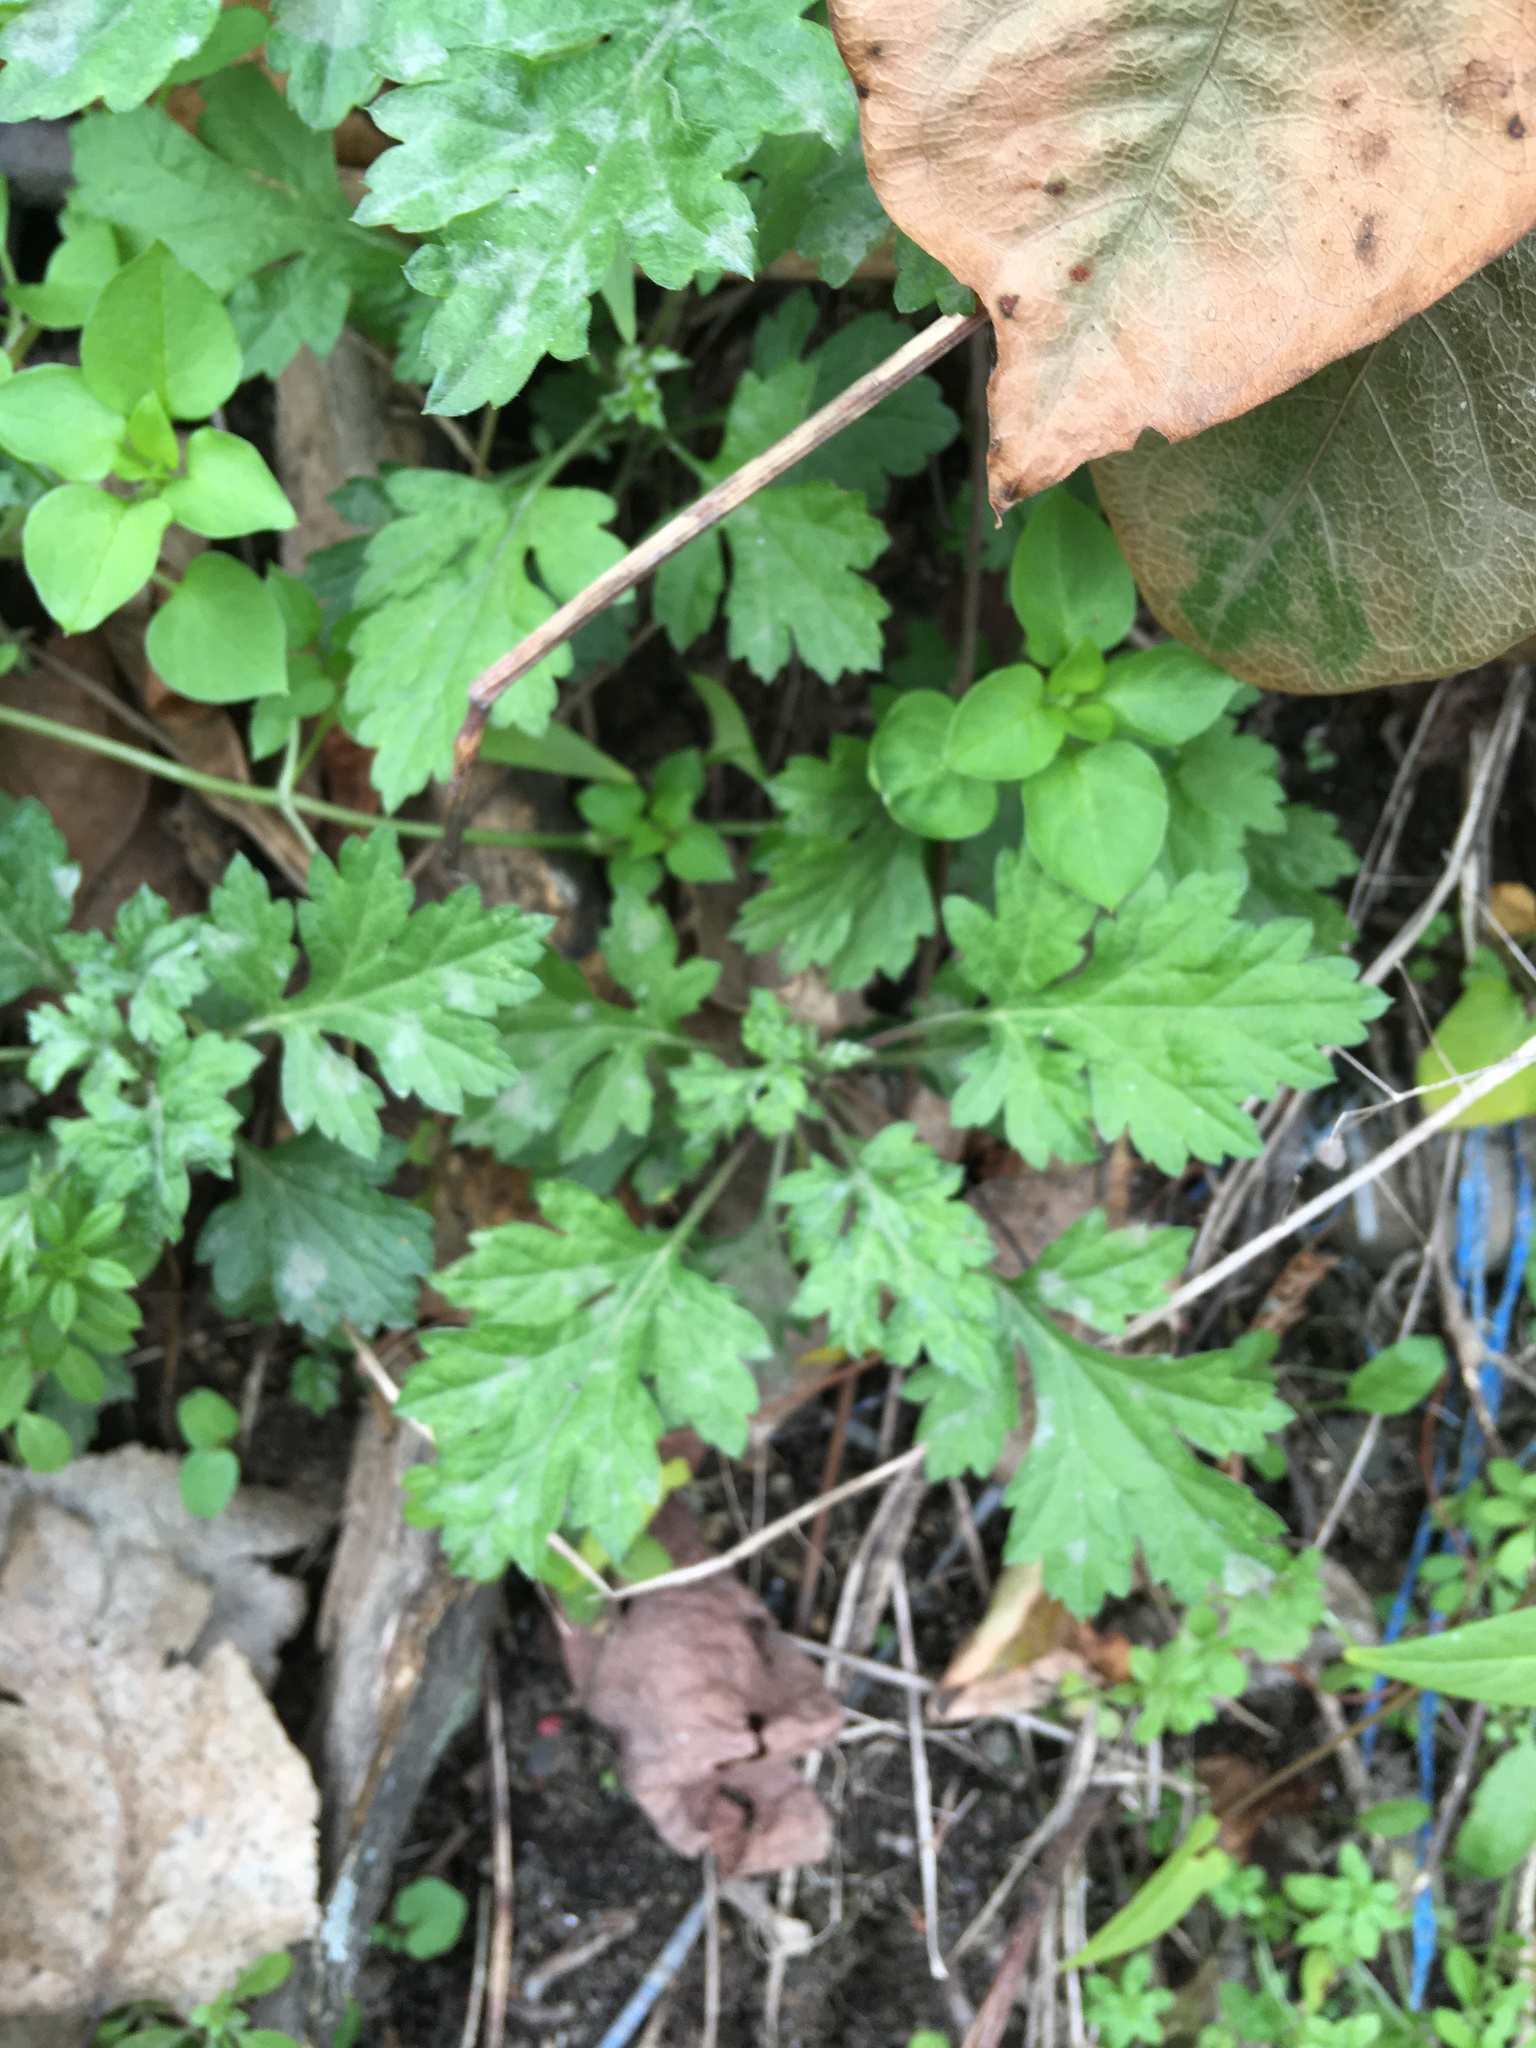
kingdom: Plantae
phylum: Tracheophyta
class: Magnoliopsida
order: Asterales
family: Asteraceae
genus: Artemisia
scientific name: Artemisia vulgaris
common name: Mugwort
